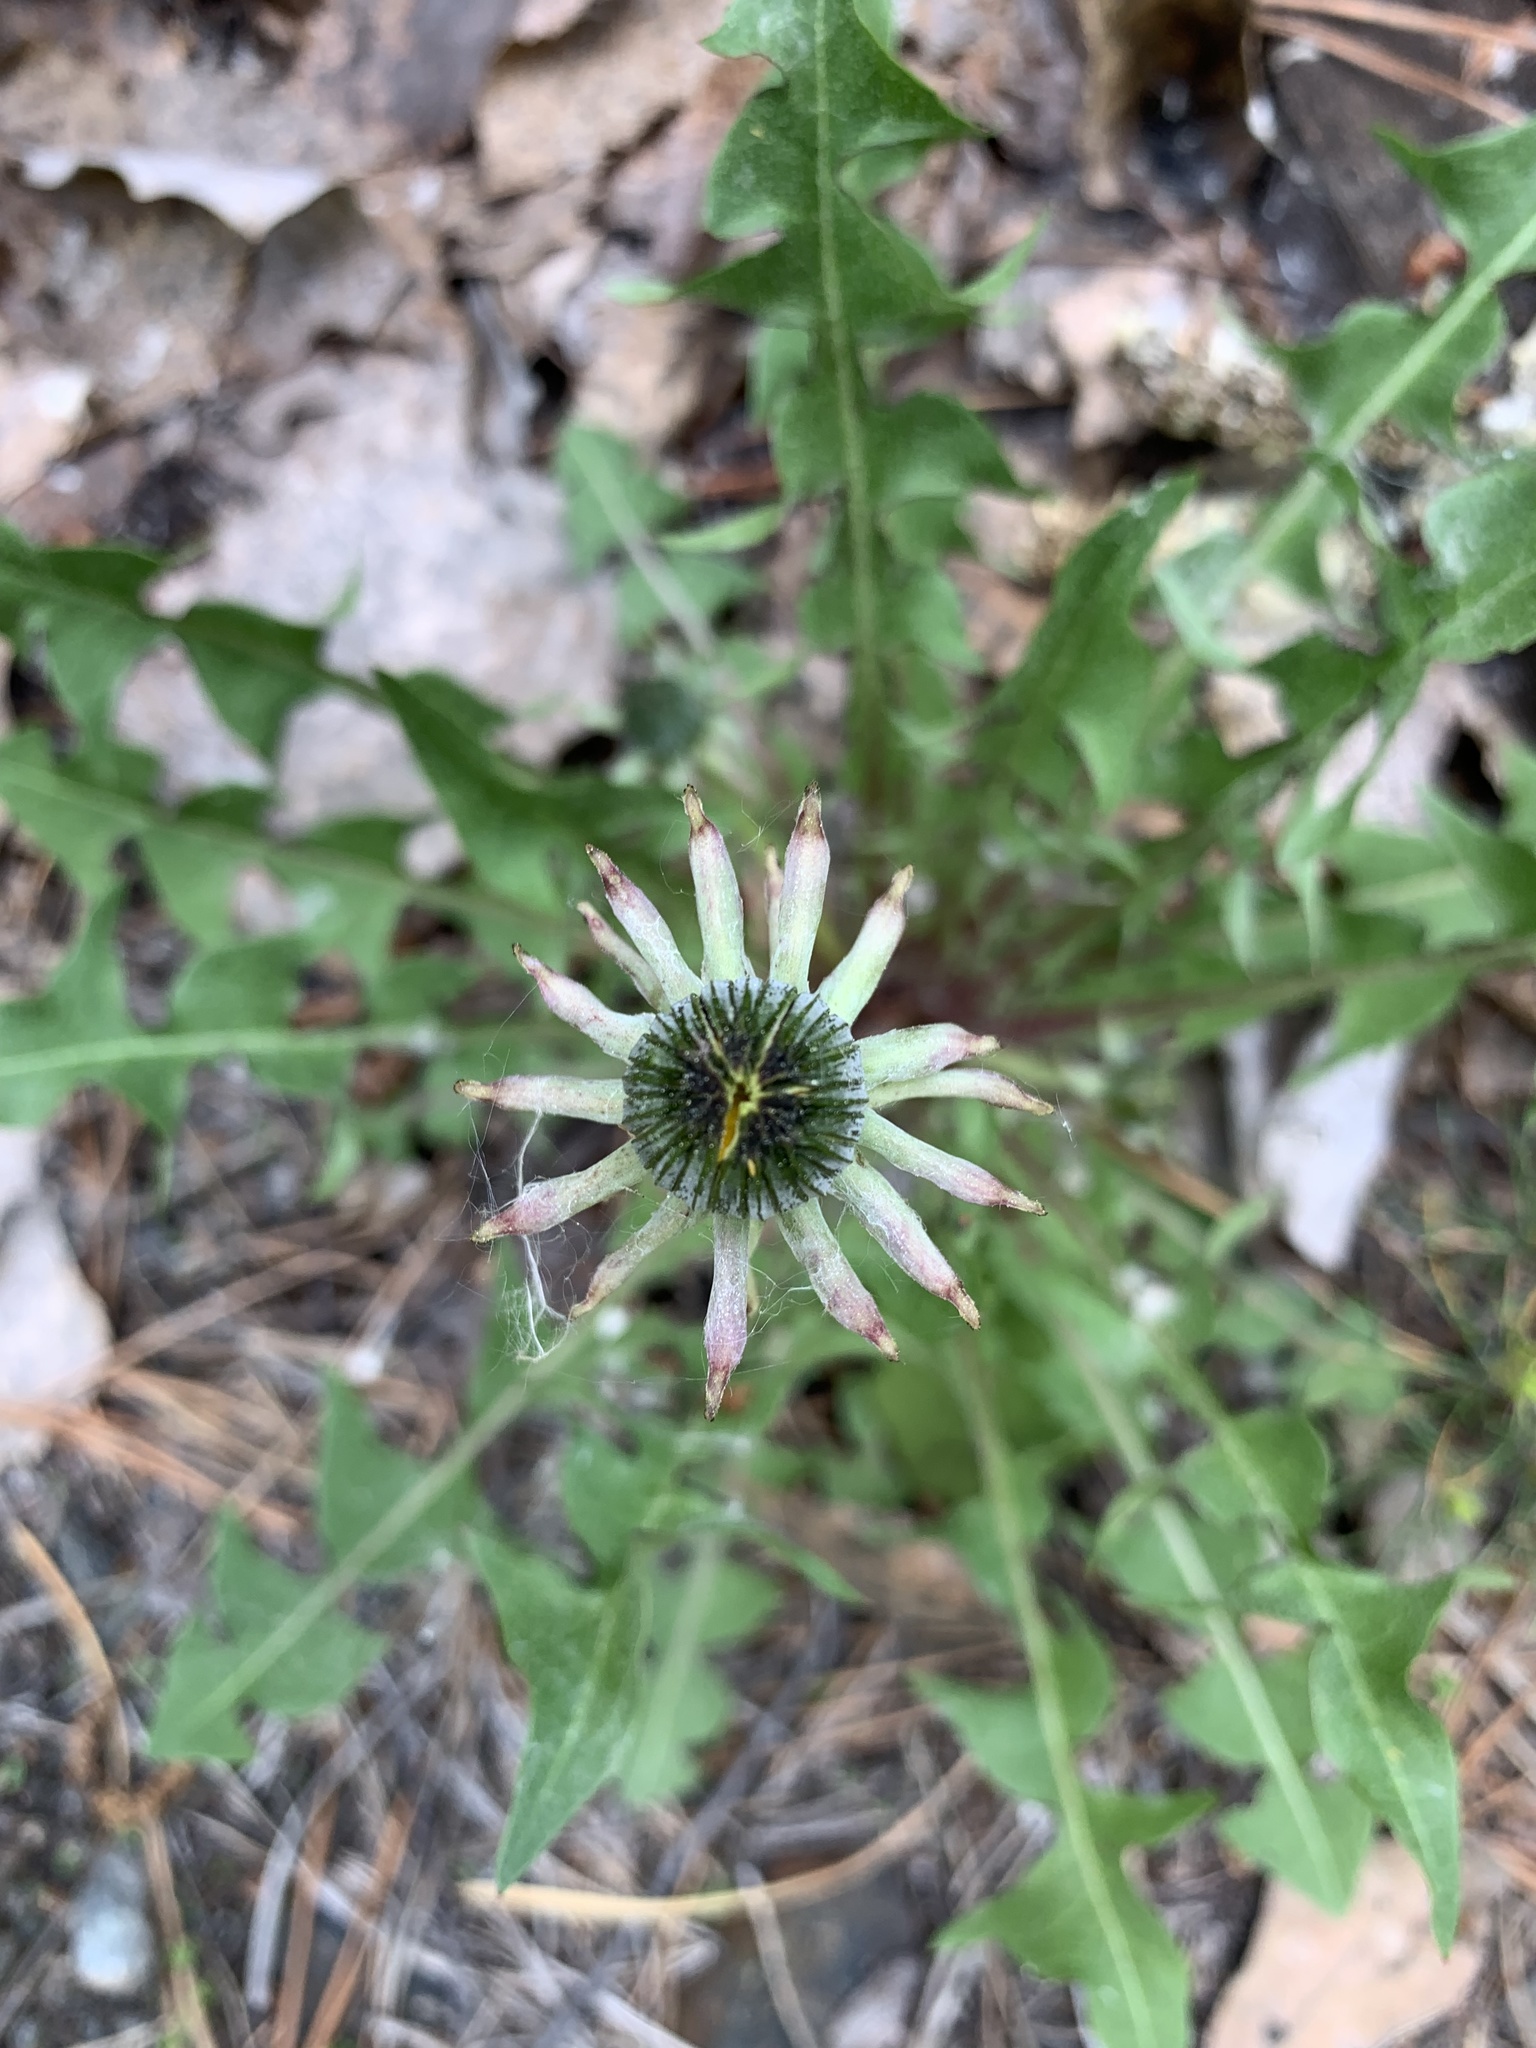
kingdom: Plantae
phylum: Tracheophyta
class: Magnoliopsida
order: Asterales
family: Asteraceae
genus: Taraxacum
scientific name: Taraxacum officinale
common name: Common dandelion
